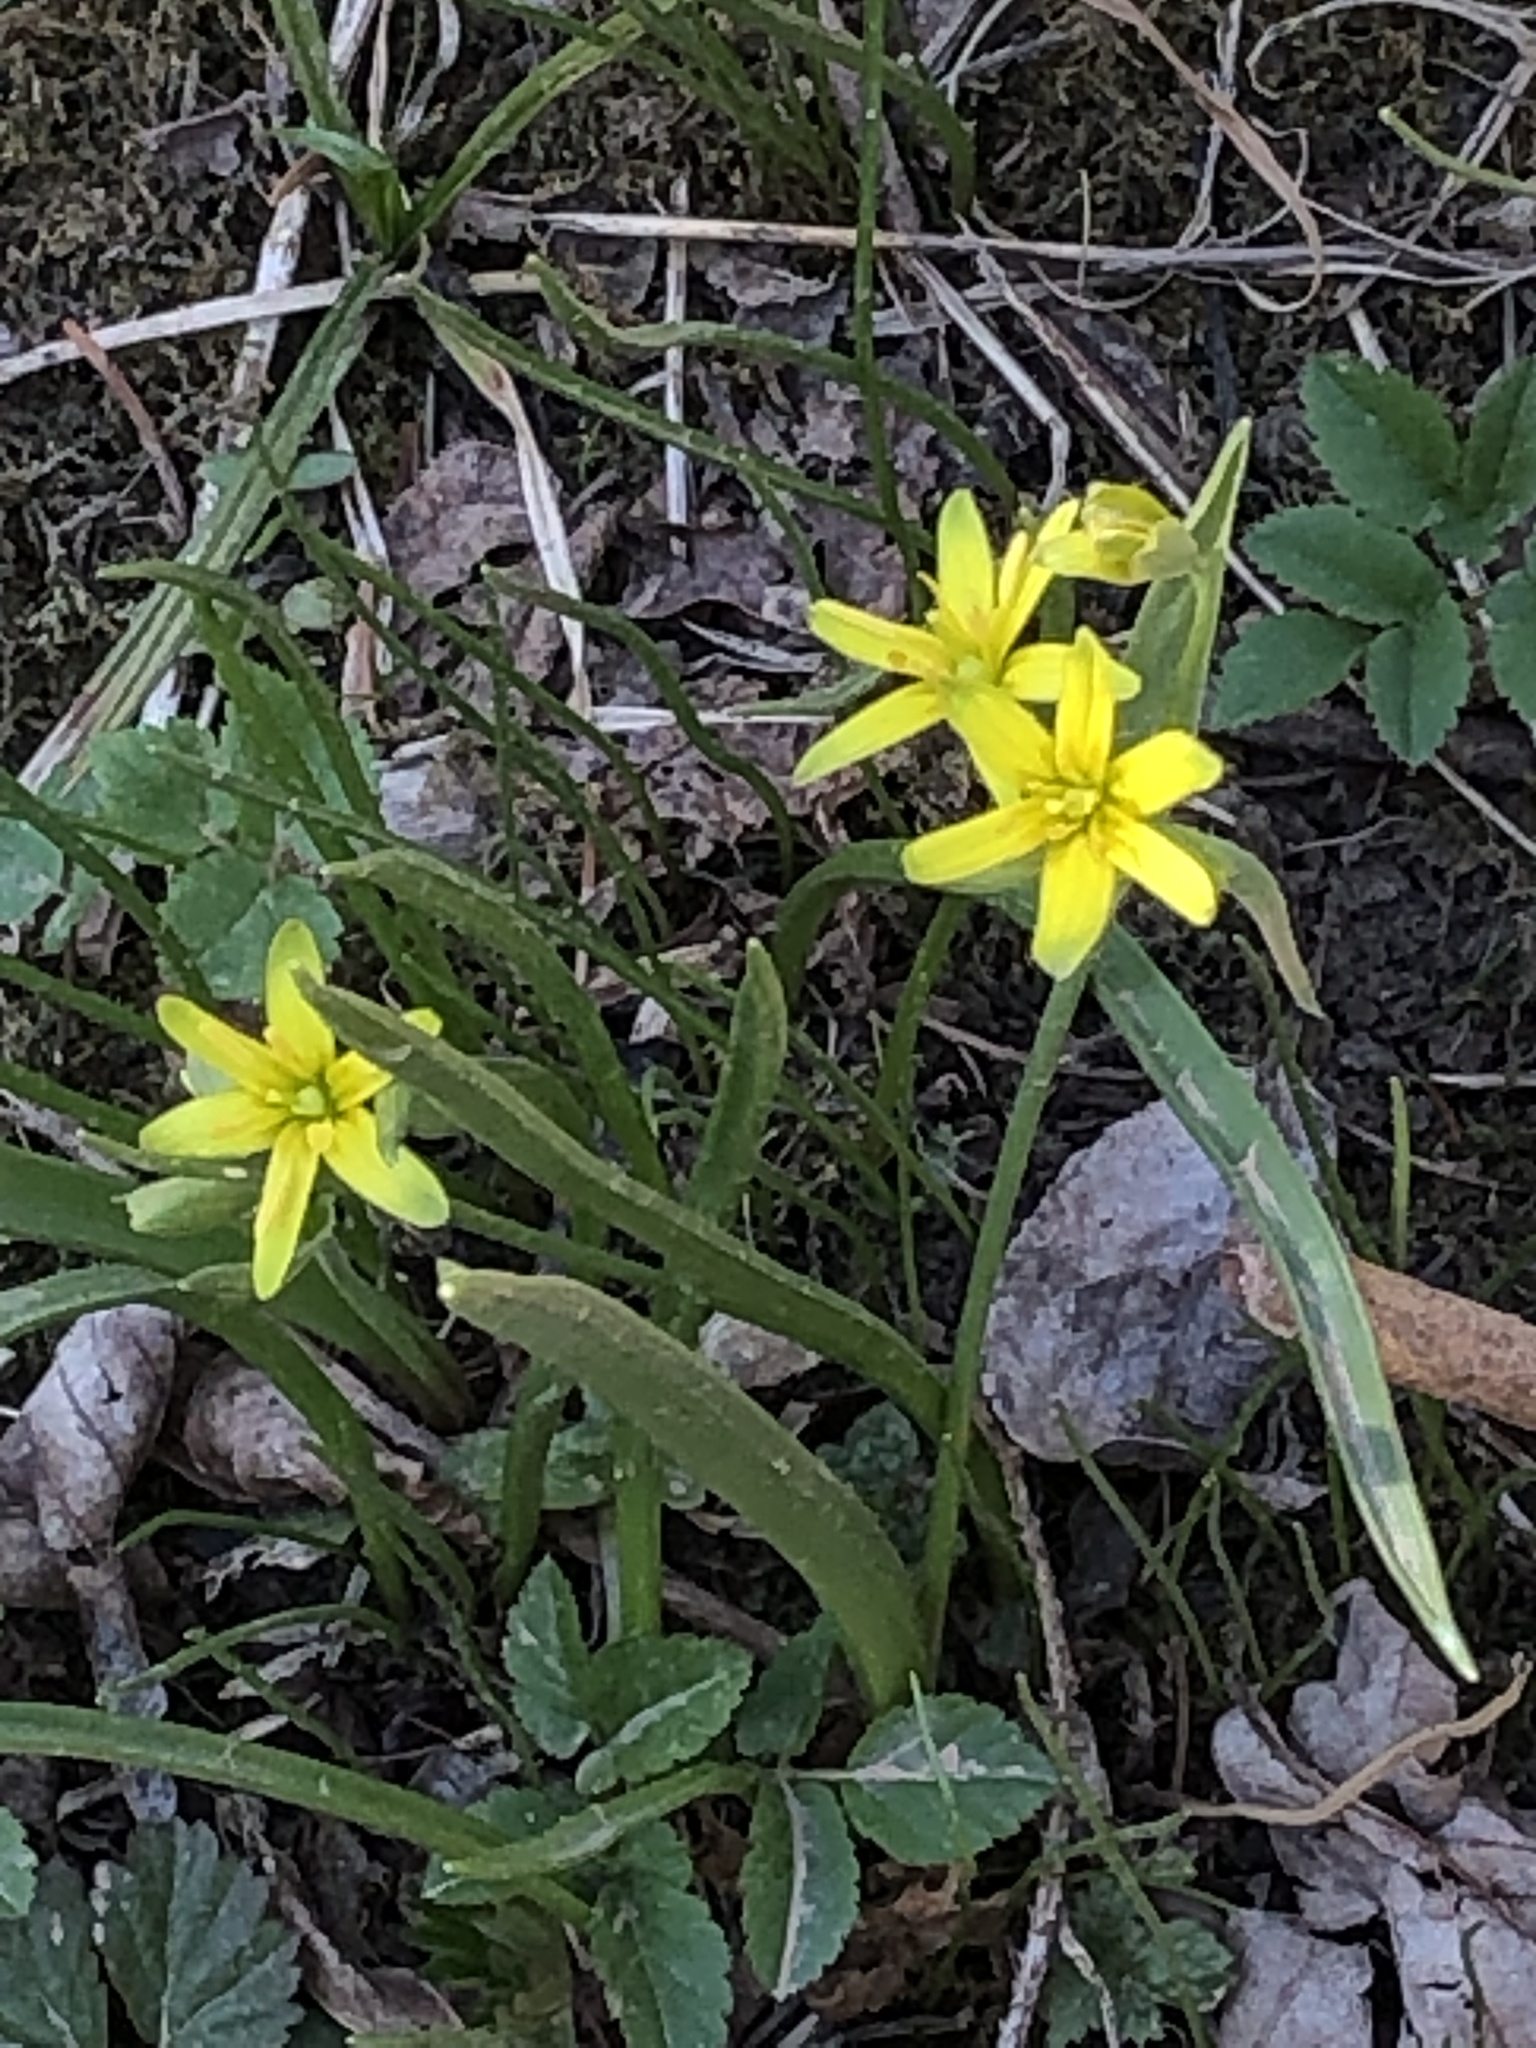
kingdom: Plantae
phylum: Tracheophyta
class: Liliopsida
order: Liliales
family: Liliaceae
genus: Gagea
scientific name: Gagea lutea
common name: Yellow star-of-bethlehem
